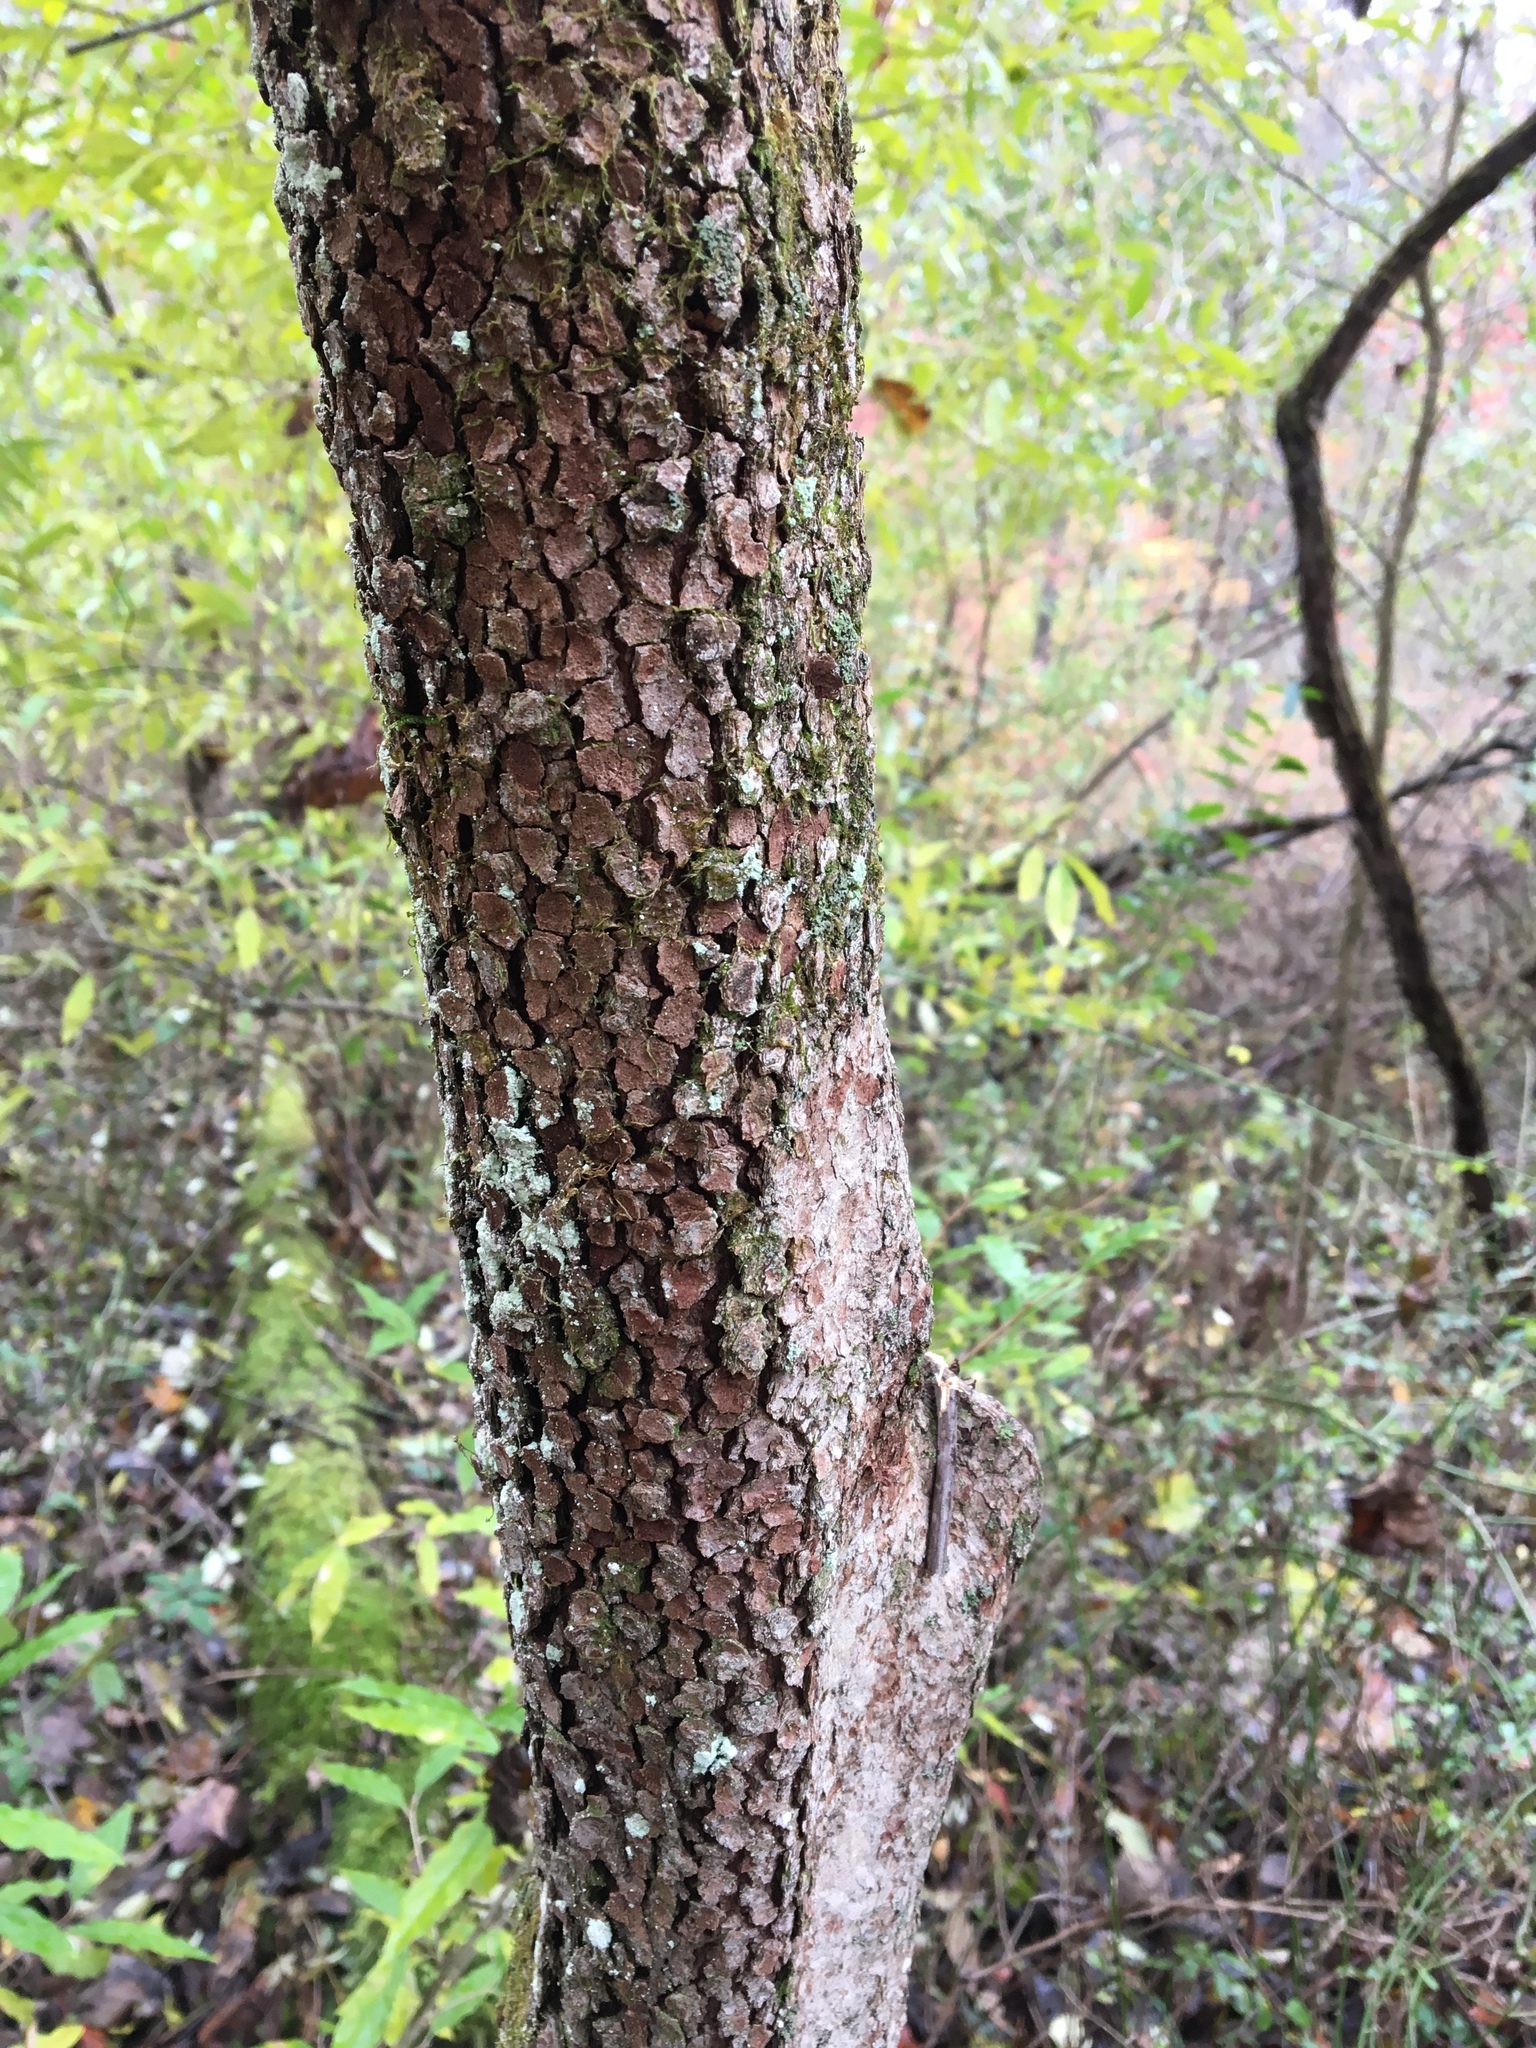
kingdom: Plantae
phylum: Tracheophyta
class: Magnoliopsida
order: Cornales
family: Cornaceae
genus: Cornus
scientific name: Cornus florida
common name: Flowering dogwood
